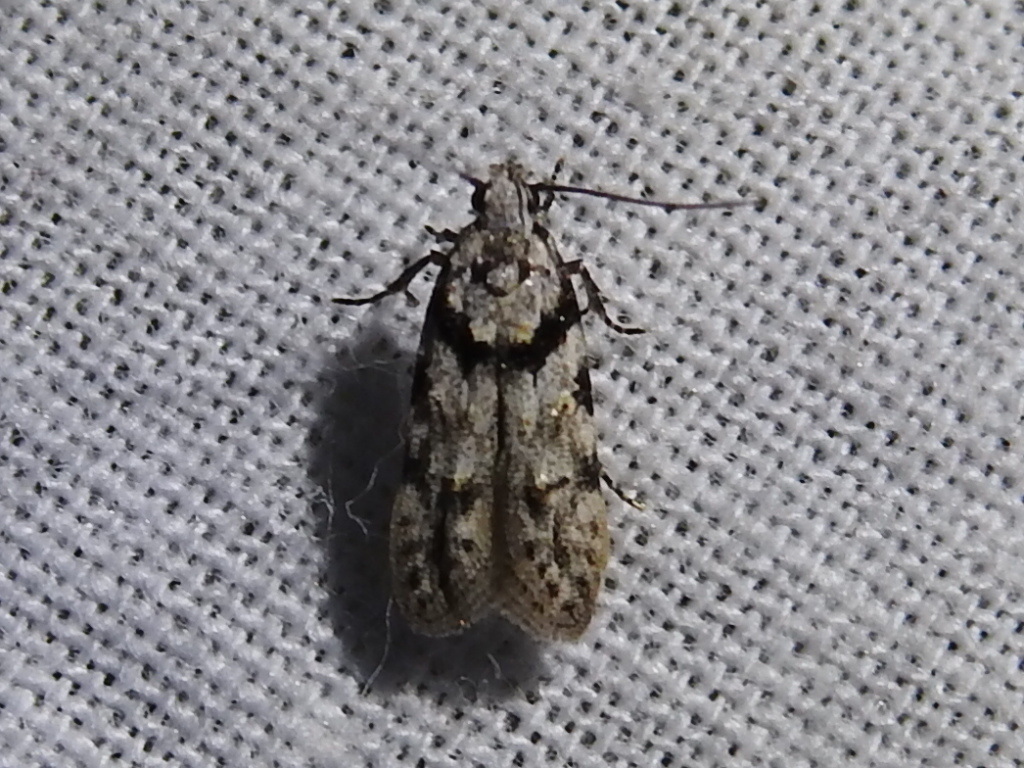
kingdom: Animalia
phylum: Arthropoda
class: Insecta
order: Lepidoptera
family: Gelechiidae
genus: Pseudotelphusa
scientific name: Pseudotelphusa palliderosacella
